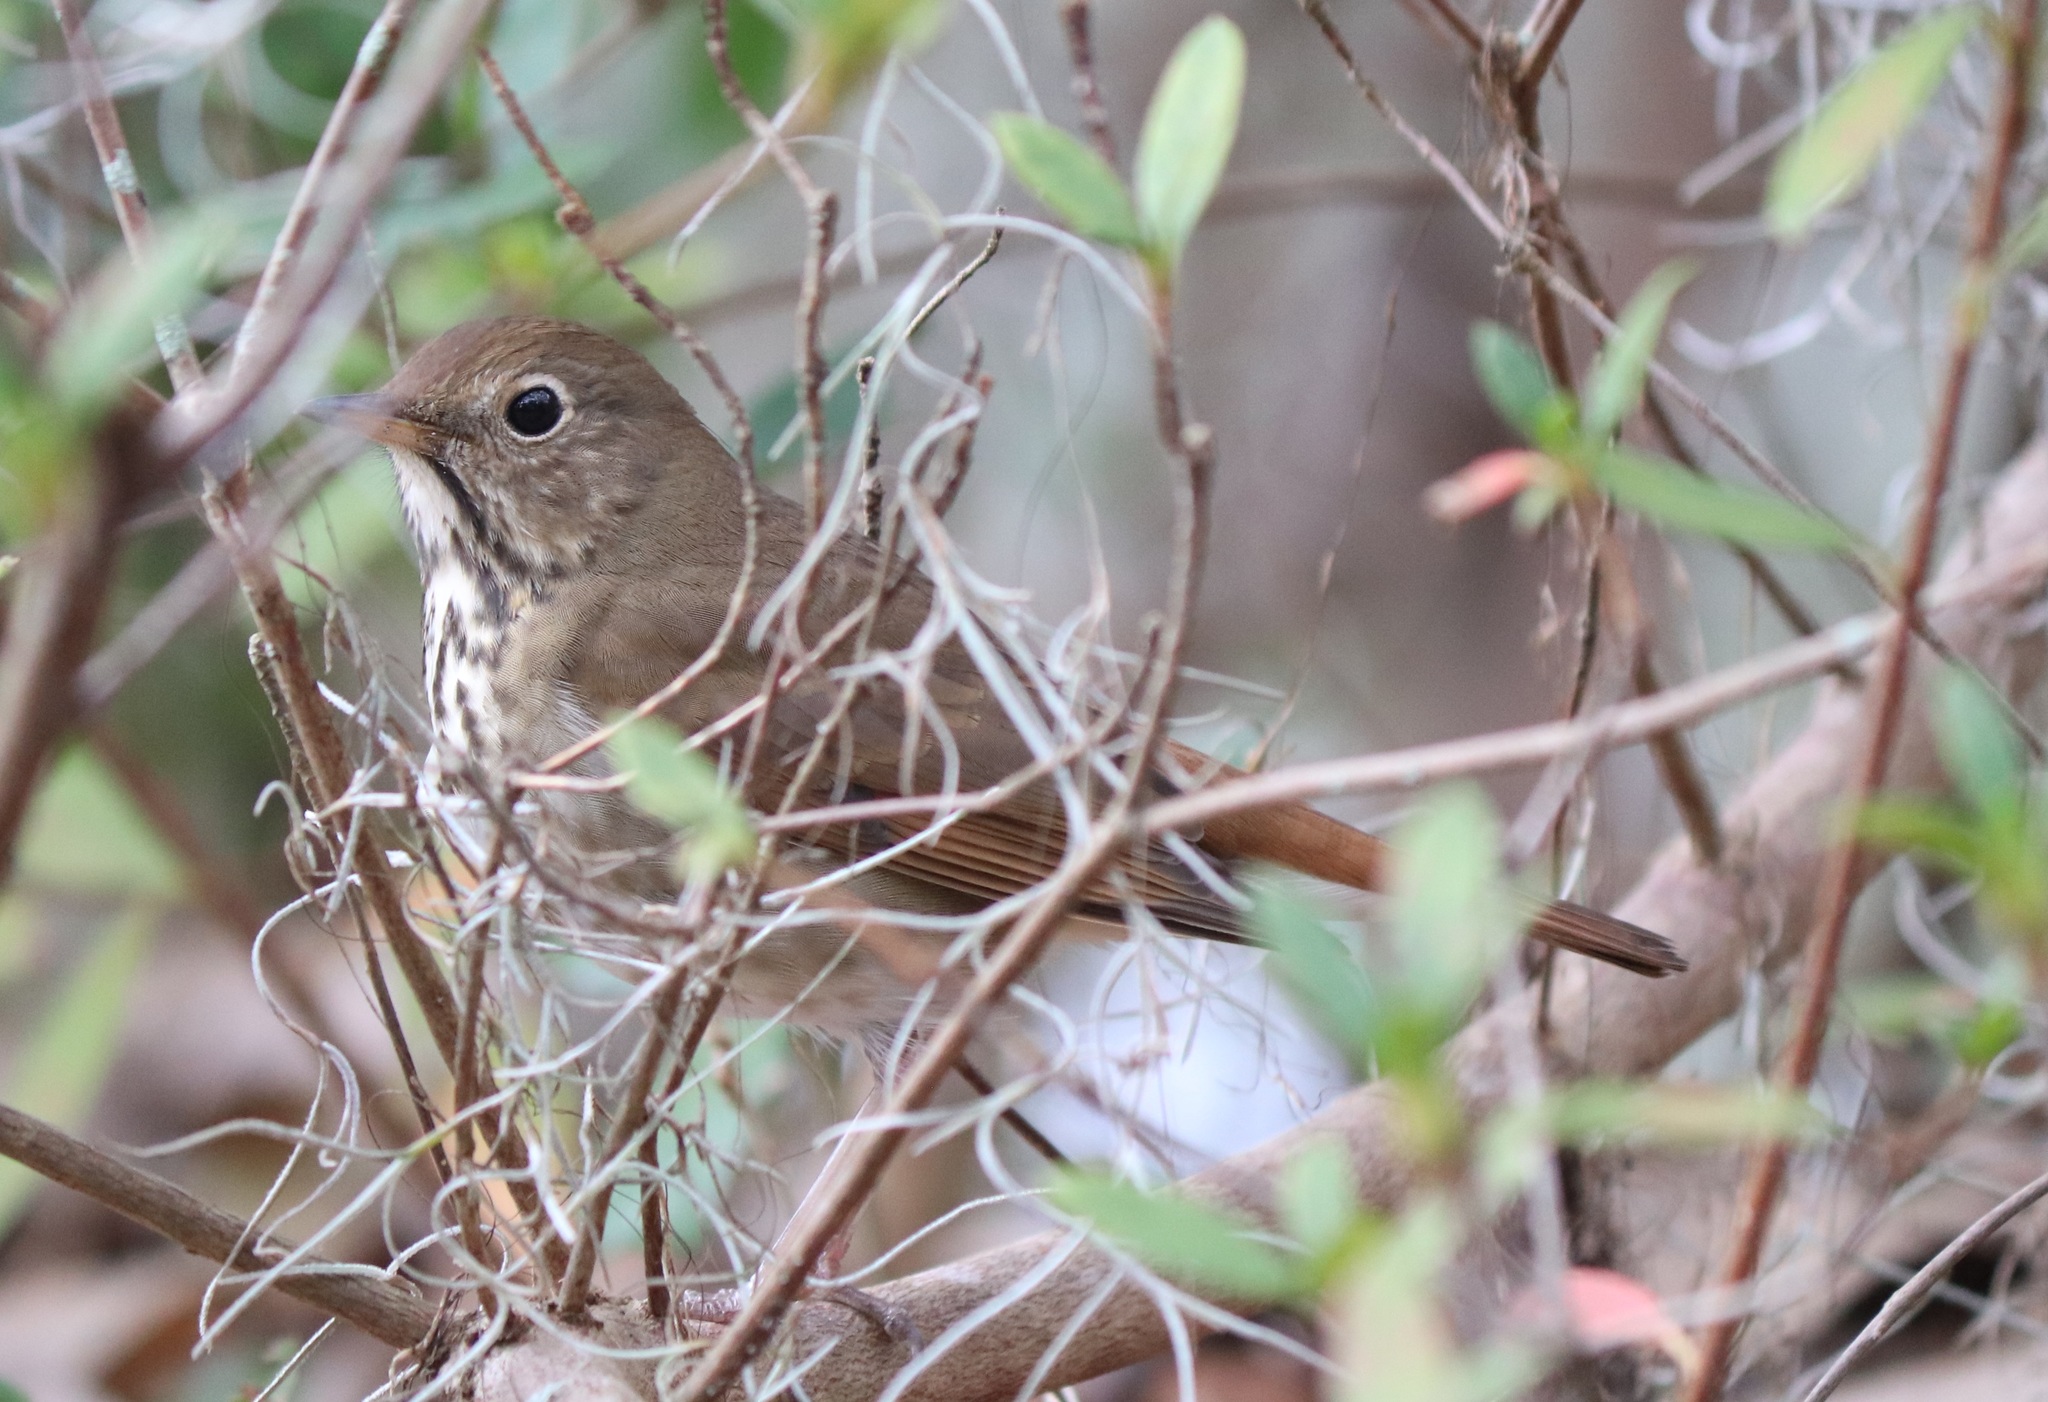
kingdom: Animalia
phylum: Chordata
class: Aves
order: Passeriformes
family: Turdidae
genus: Catharus
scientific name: Catharus guttatus
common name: Hermit thrush
